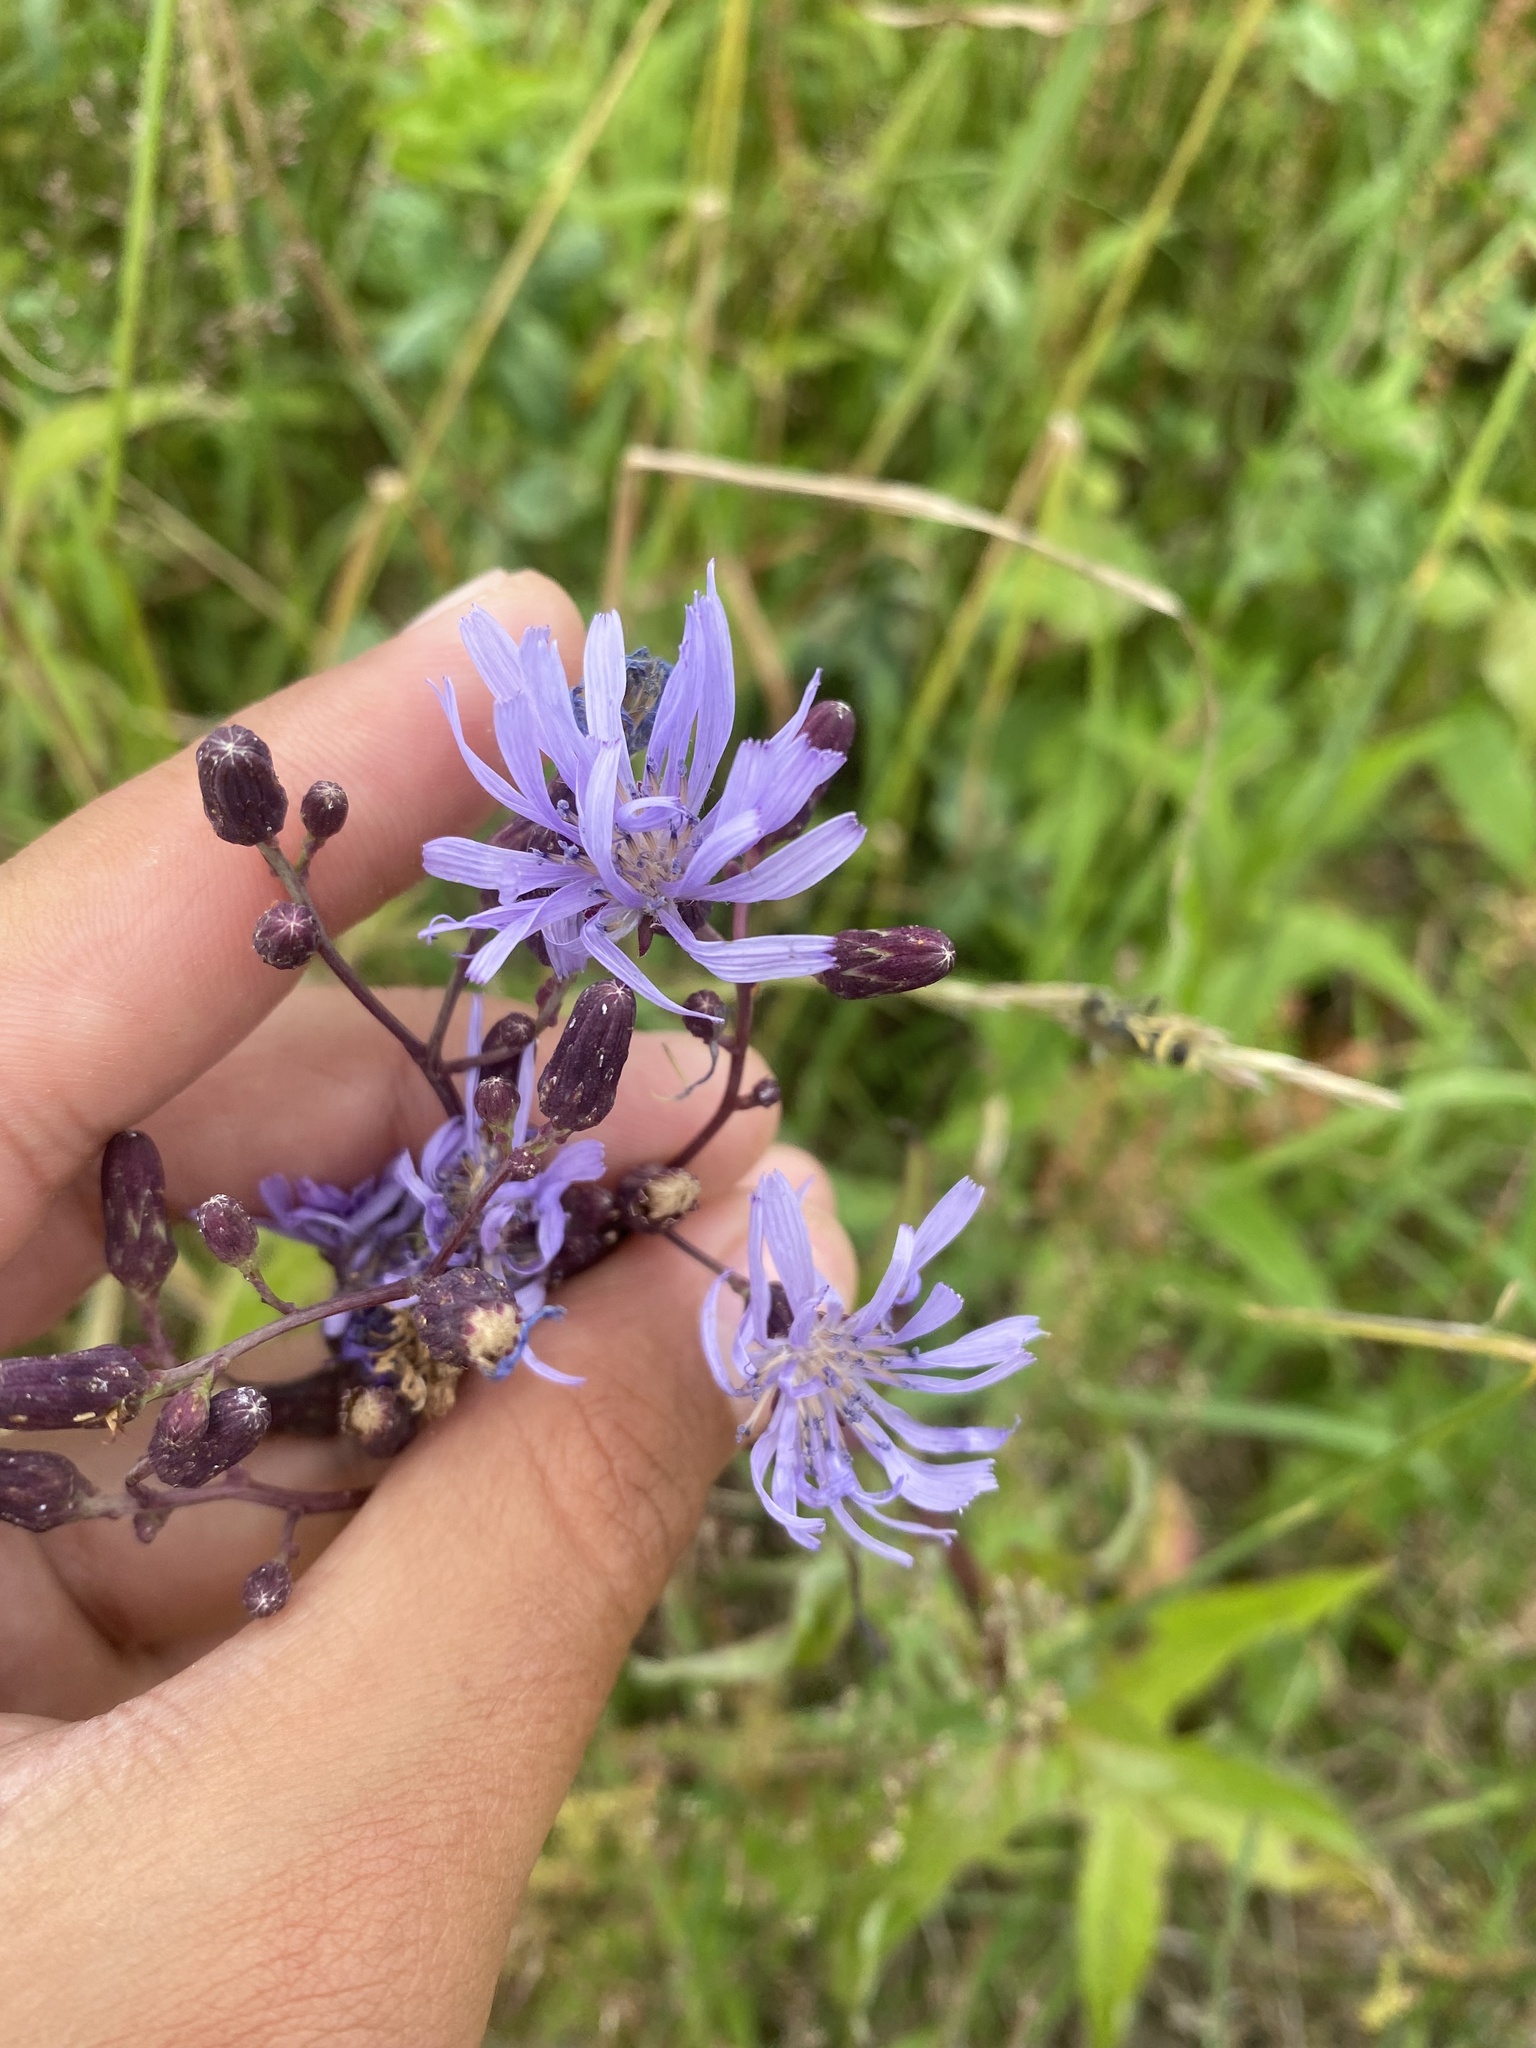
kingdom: Plantae
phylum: Tracheophyta
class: Magnoliopsida
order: Asterales
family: Asteraceae
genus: Lactuca
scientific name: Lactuca sibirica
